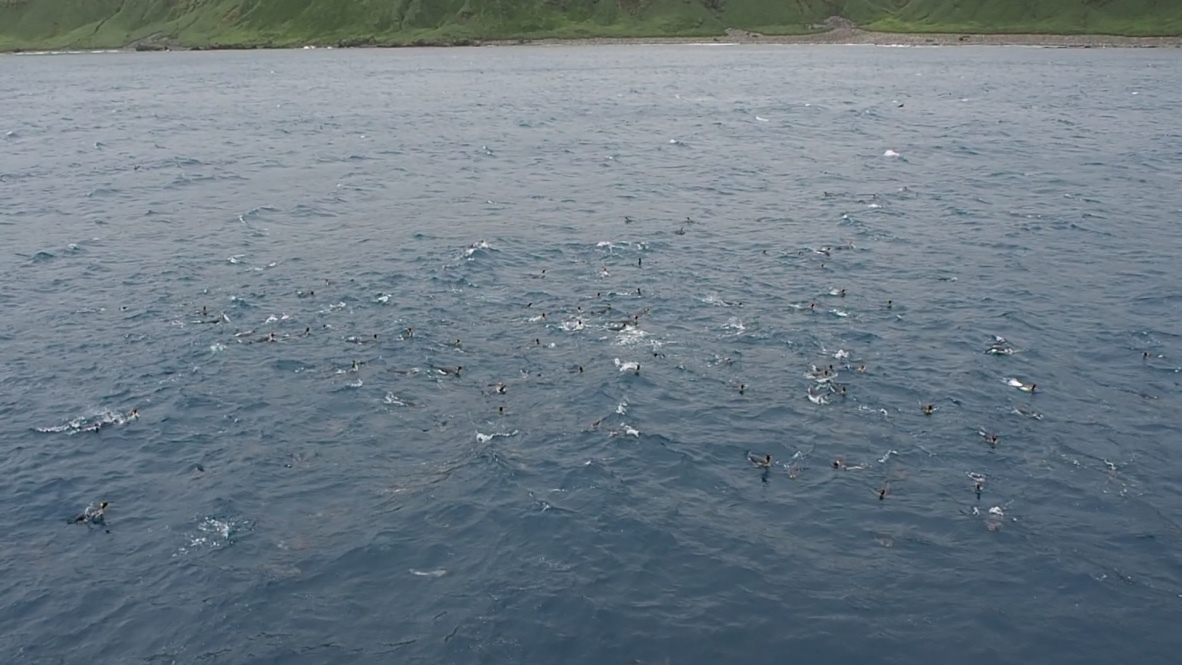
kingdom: Animalia
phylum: Chordata
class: Aves
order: Sphenisciformes
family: Spheniscidae
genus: Aptenodytes
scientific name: Aptenodytes patagonicus
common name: King penguin
